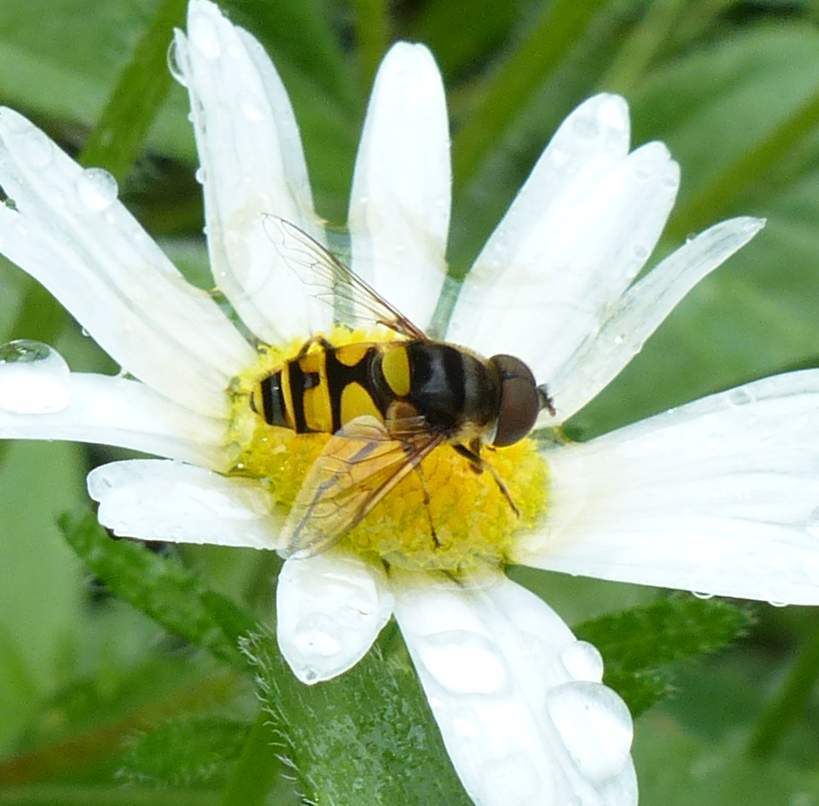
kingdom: Animalia
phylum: Arthropoda
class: Insecta
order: Diptera
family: Syrphidae
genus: Eristalis
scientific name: Eristalis transversa
